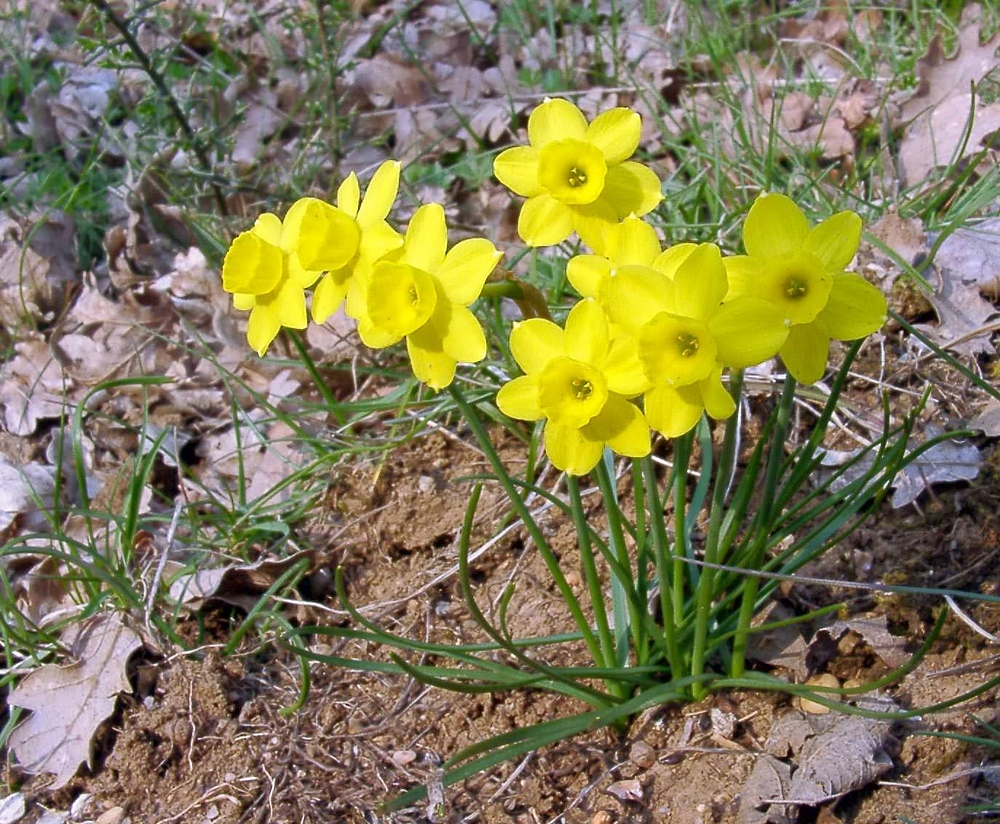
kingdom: Plantae
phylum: Tracheophyta
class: Liliopsida
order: Asparagales
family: Amaryllidaceae
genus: Narcissus
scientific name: Narcissus assoanus
